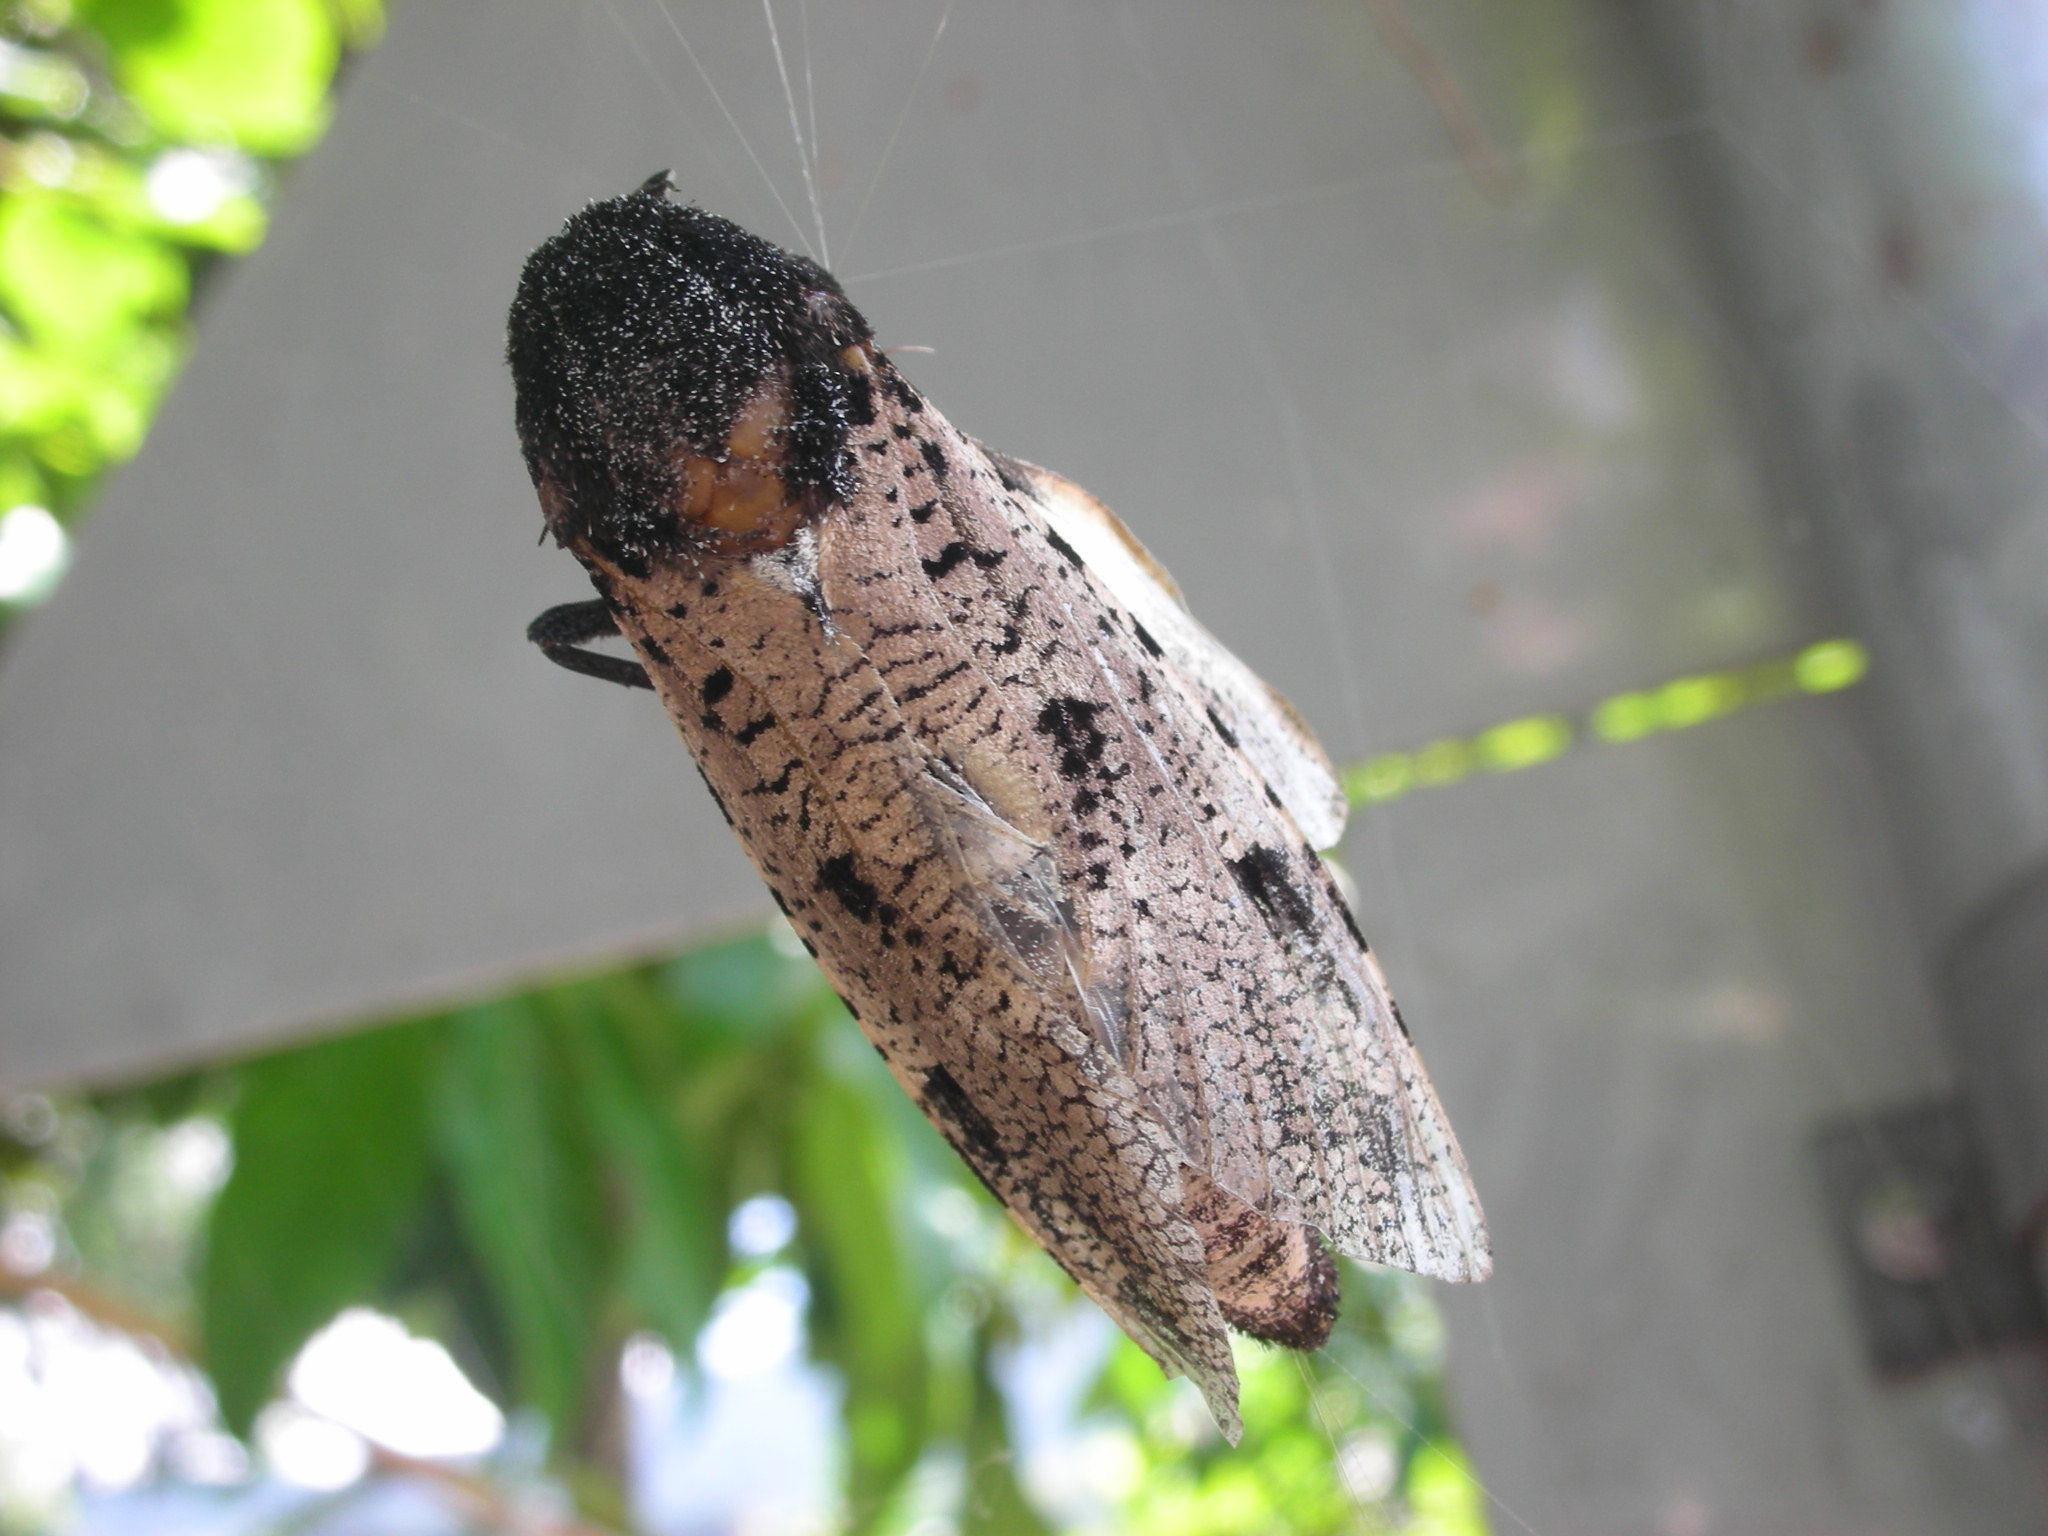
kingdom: Animalia
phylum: Arthropoda
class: Insecta
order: Lepidoptera
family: Cossidae
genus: Xyleutes
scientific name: Xyleutes strix
